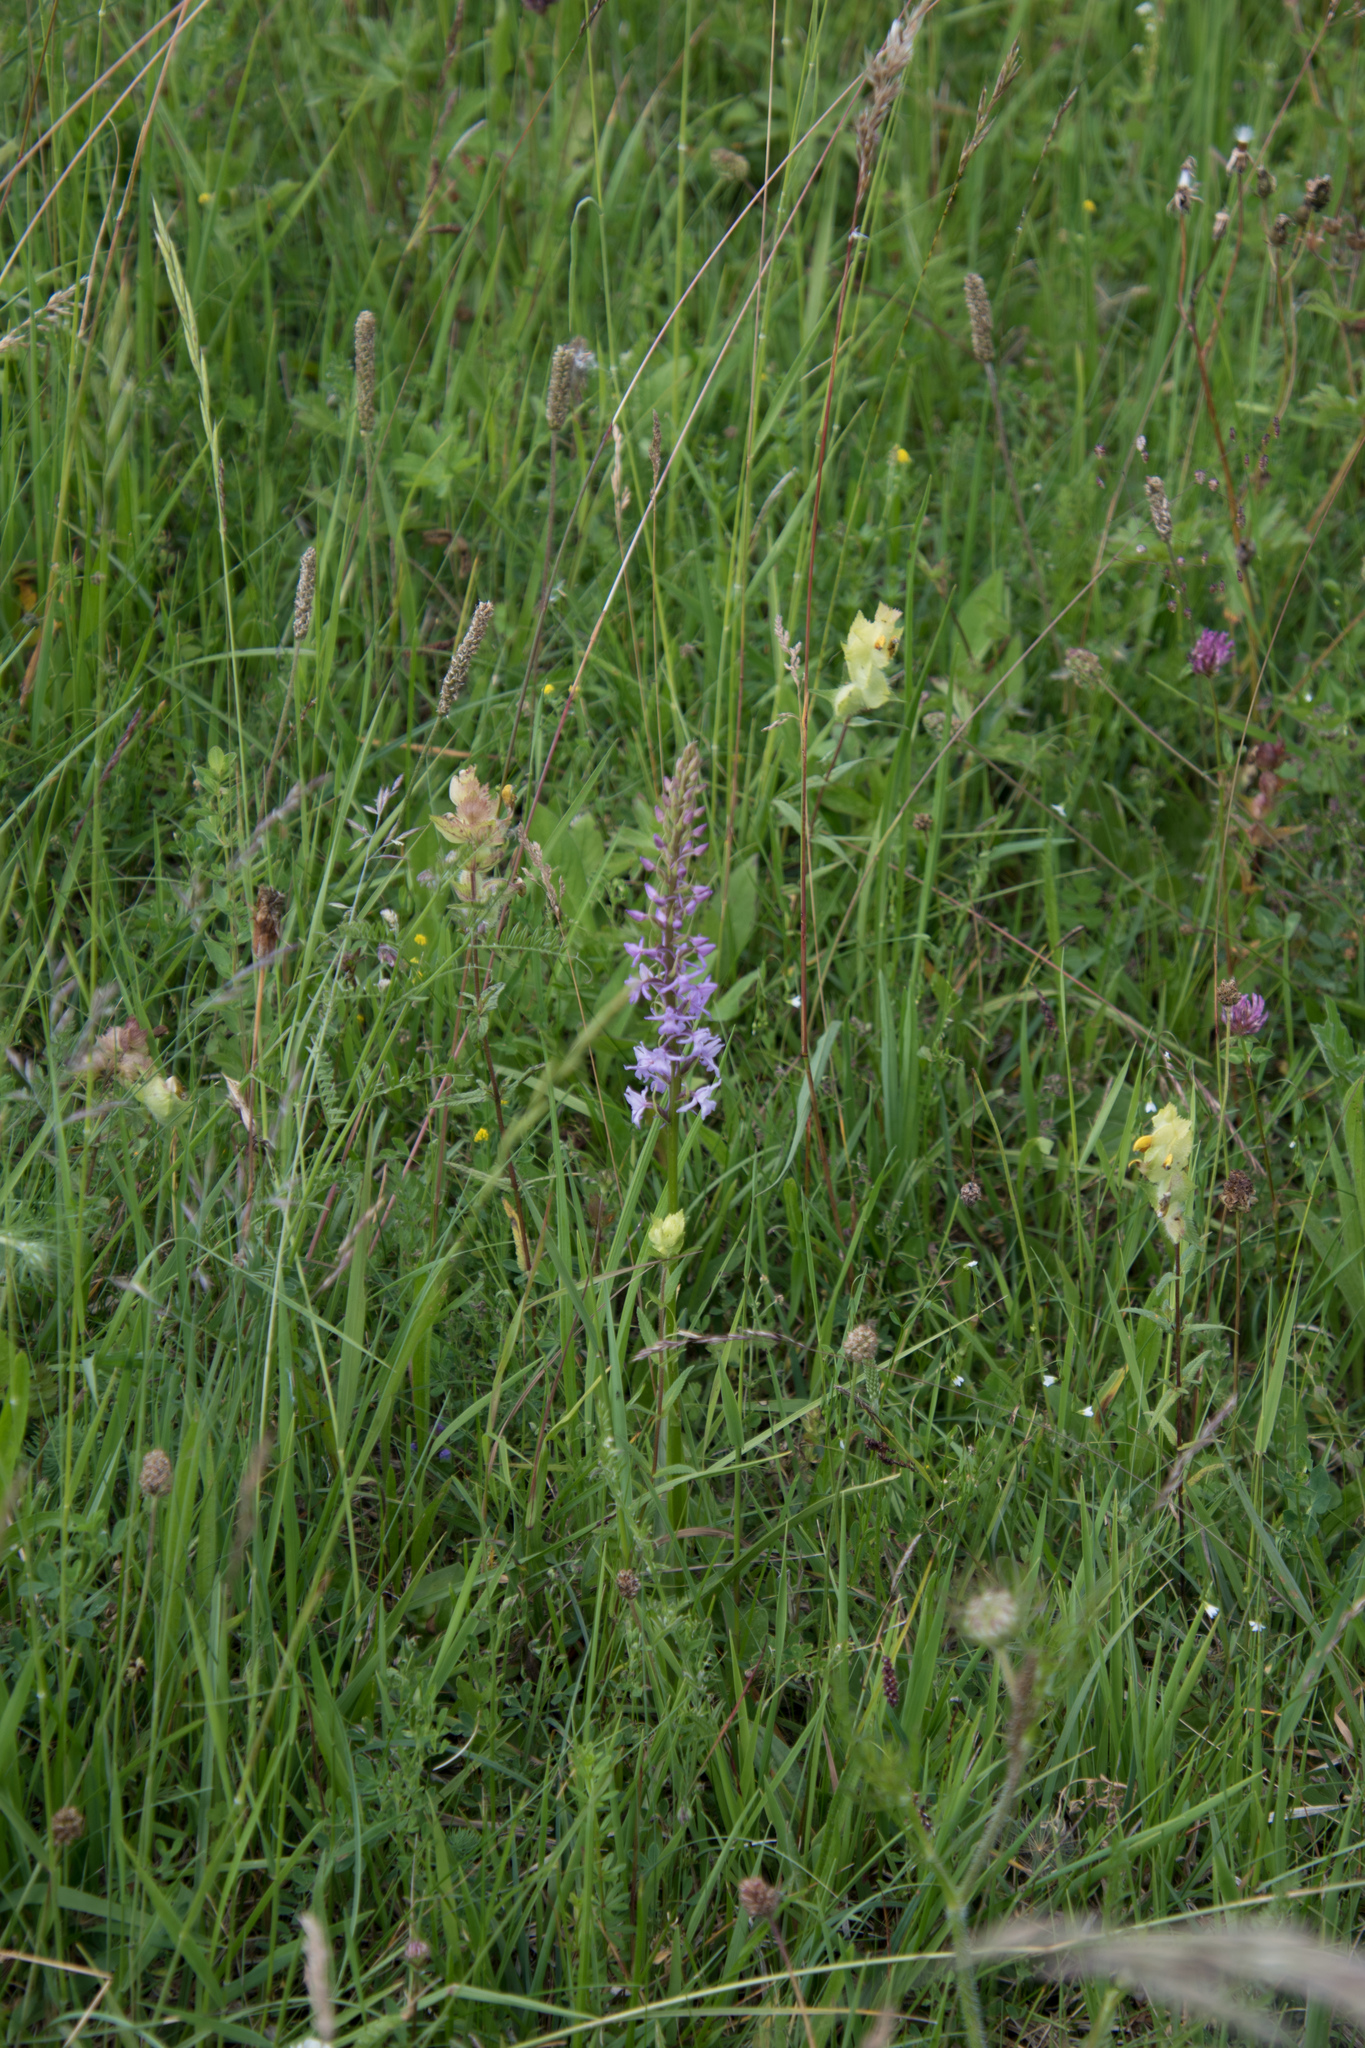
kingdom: Plantae
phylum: Tracheophyta
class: Liliopsida
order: Asparagales
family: Orchidaceae
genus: Gymnadenia
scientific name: Gymnadenia conopsea
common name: Fragrant orchid
